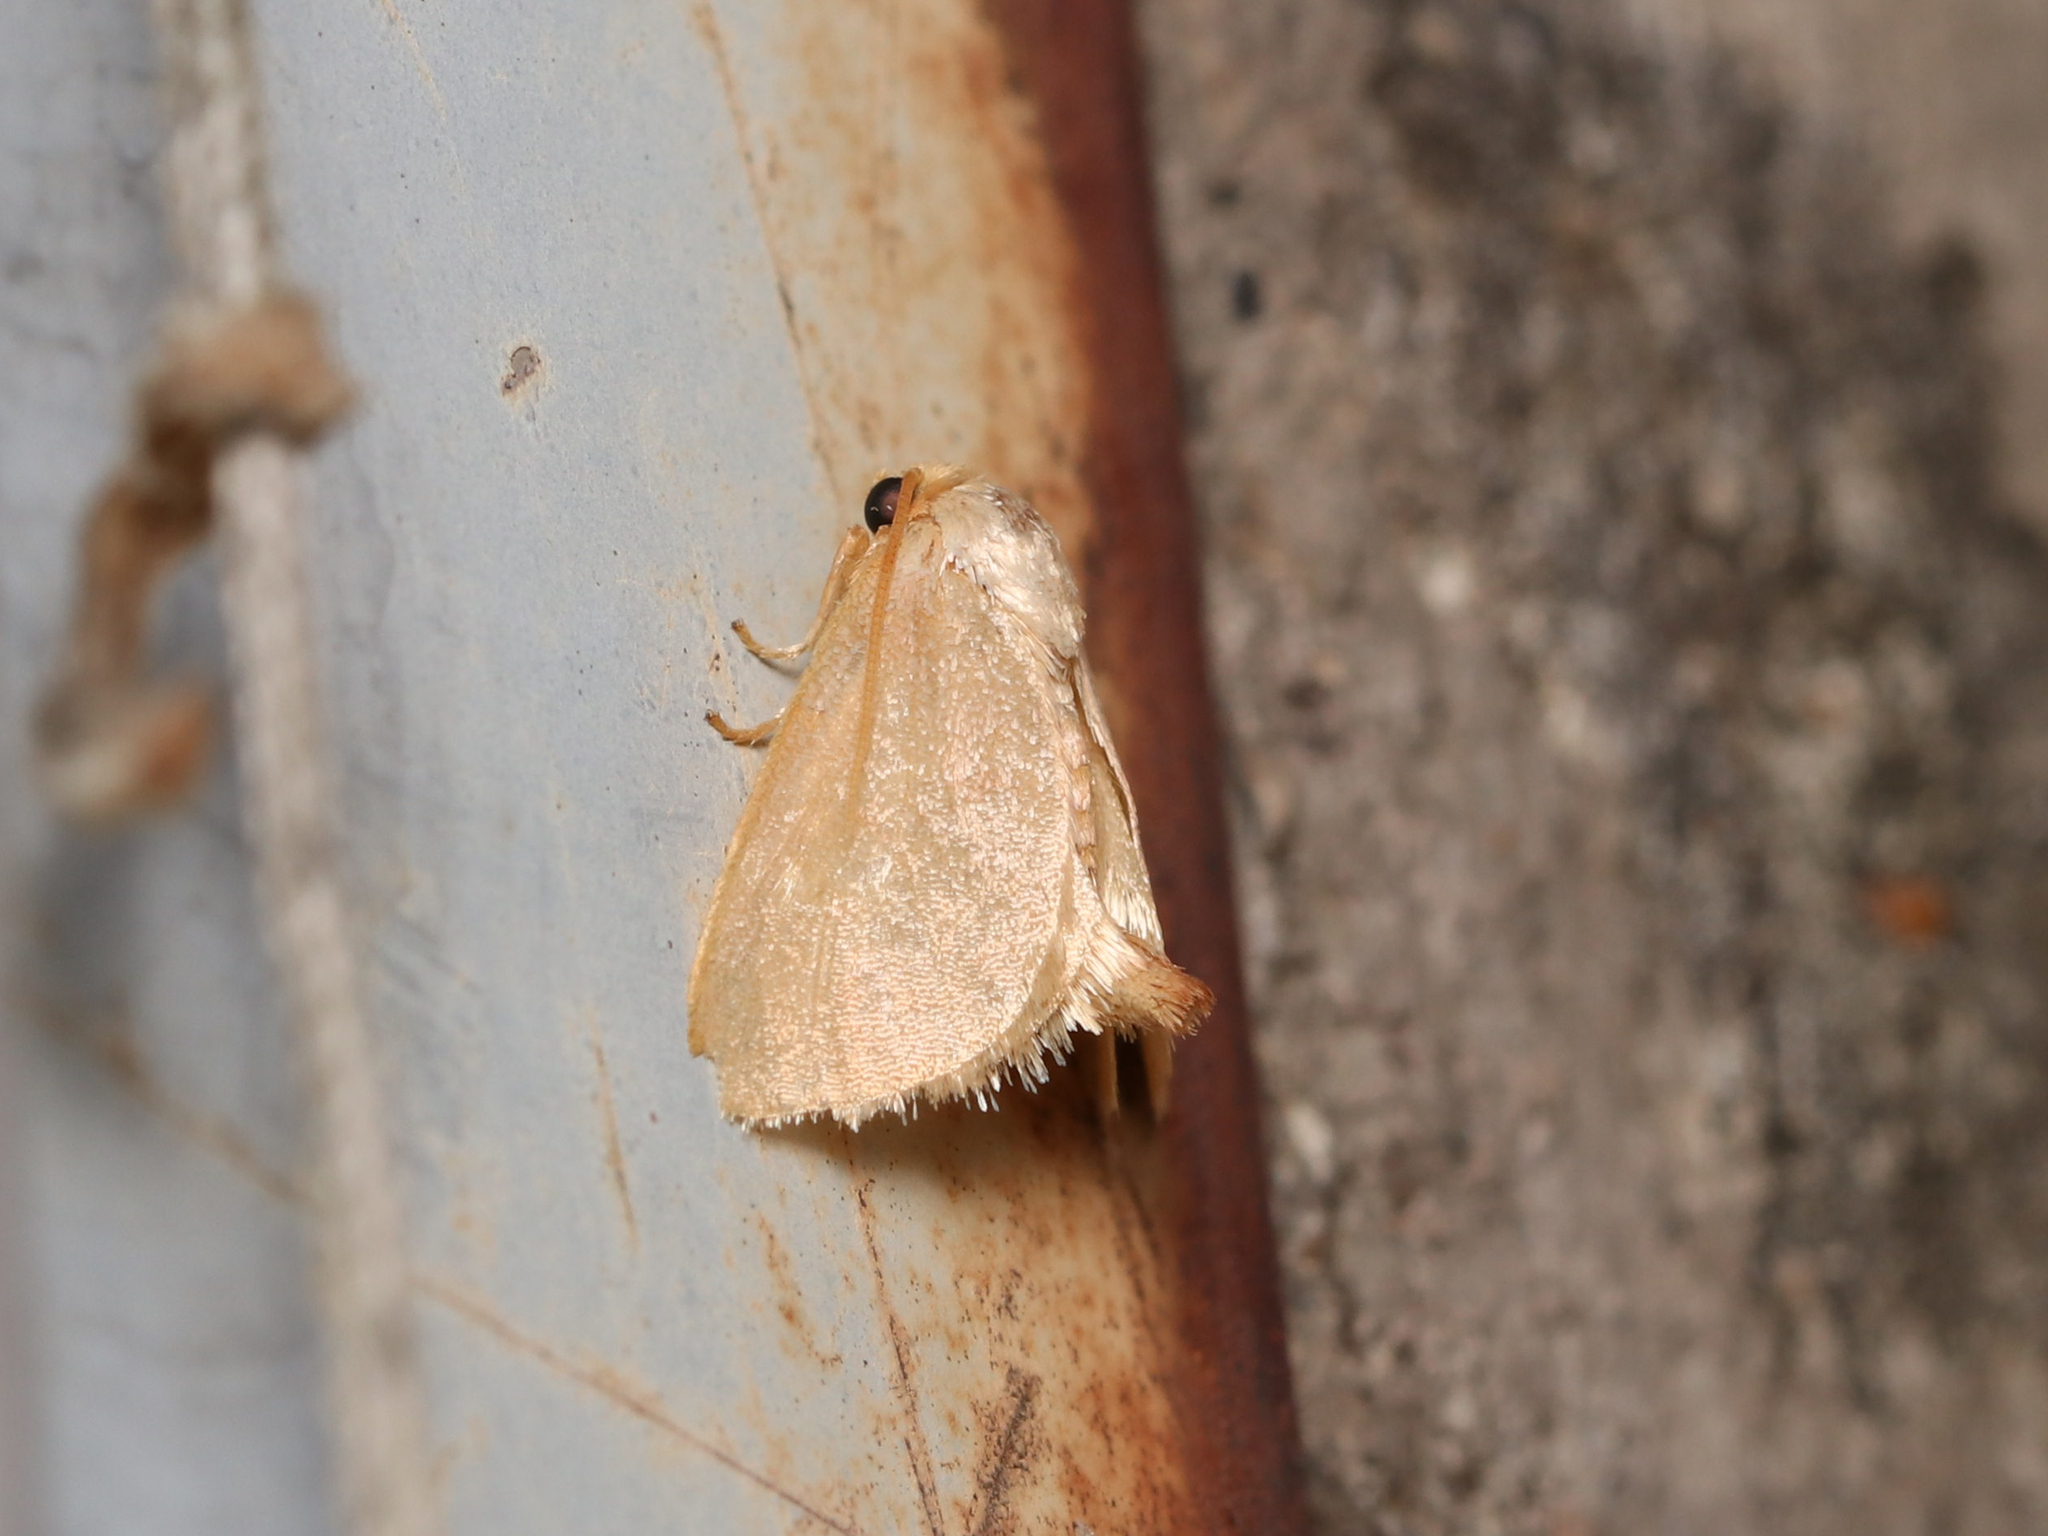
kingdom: Animalia
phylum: Arthropoda
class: Insecta
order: Lepidoptera
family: Limacodidae
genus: Tortricidia
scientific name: Tortricidia pallida
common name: Red-crossed button slug moth
